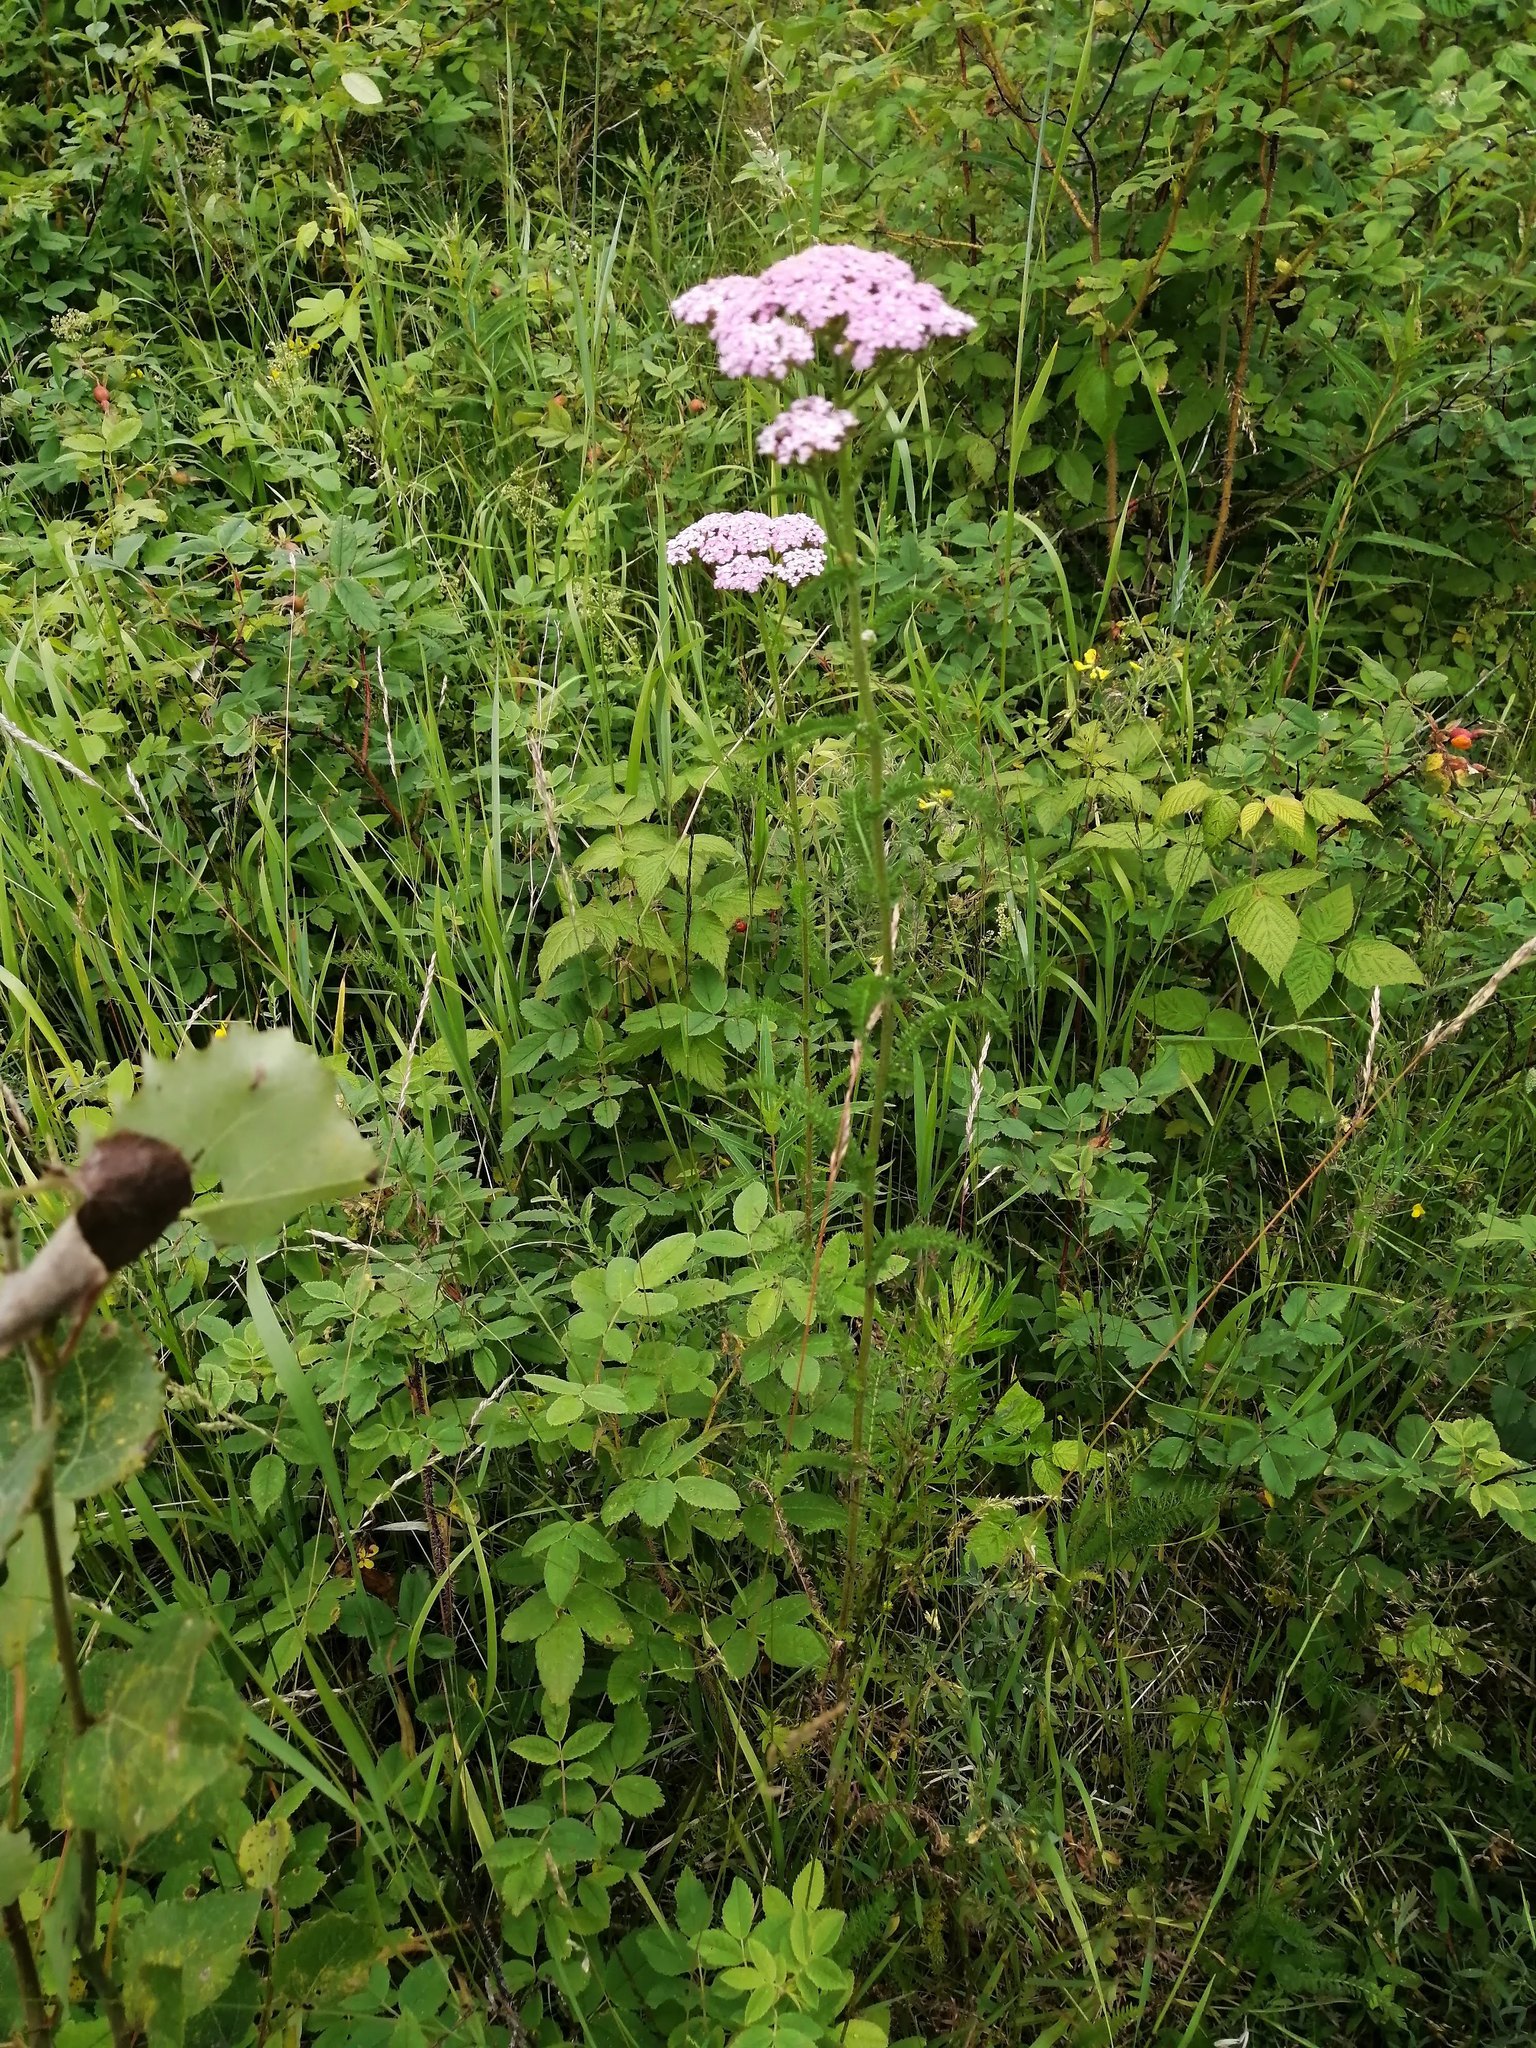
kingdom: Plantae
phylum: Tracheophyta
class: Magnoliopsida
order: Asterales
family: Asteraceae
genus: Achillea
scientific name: Achillea millefolium
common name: Yarrow
